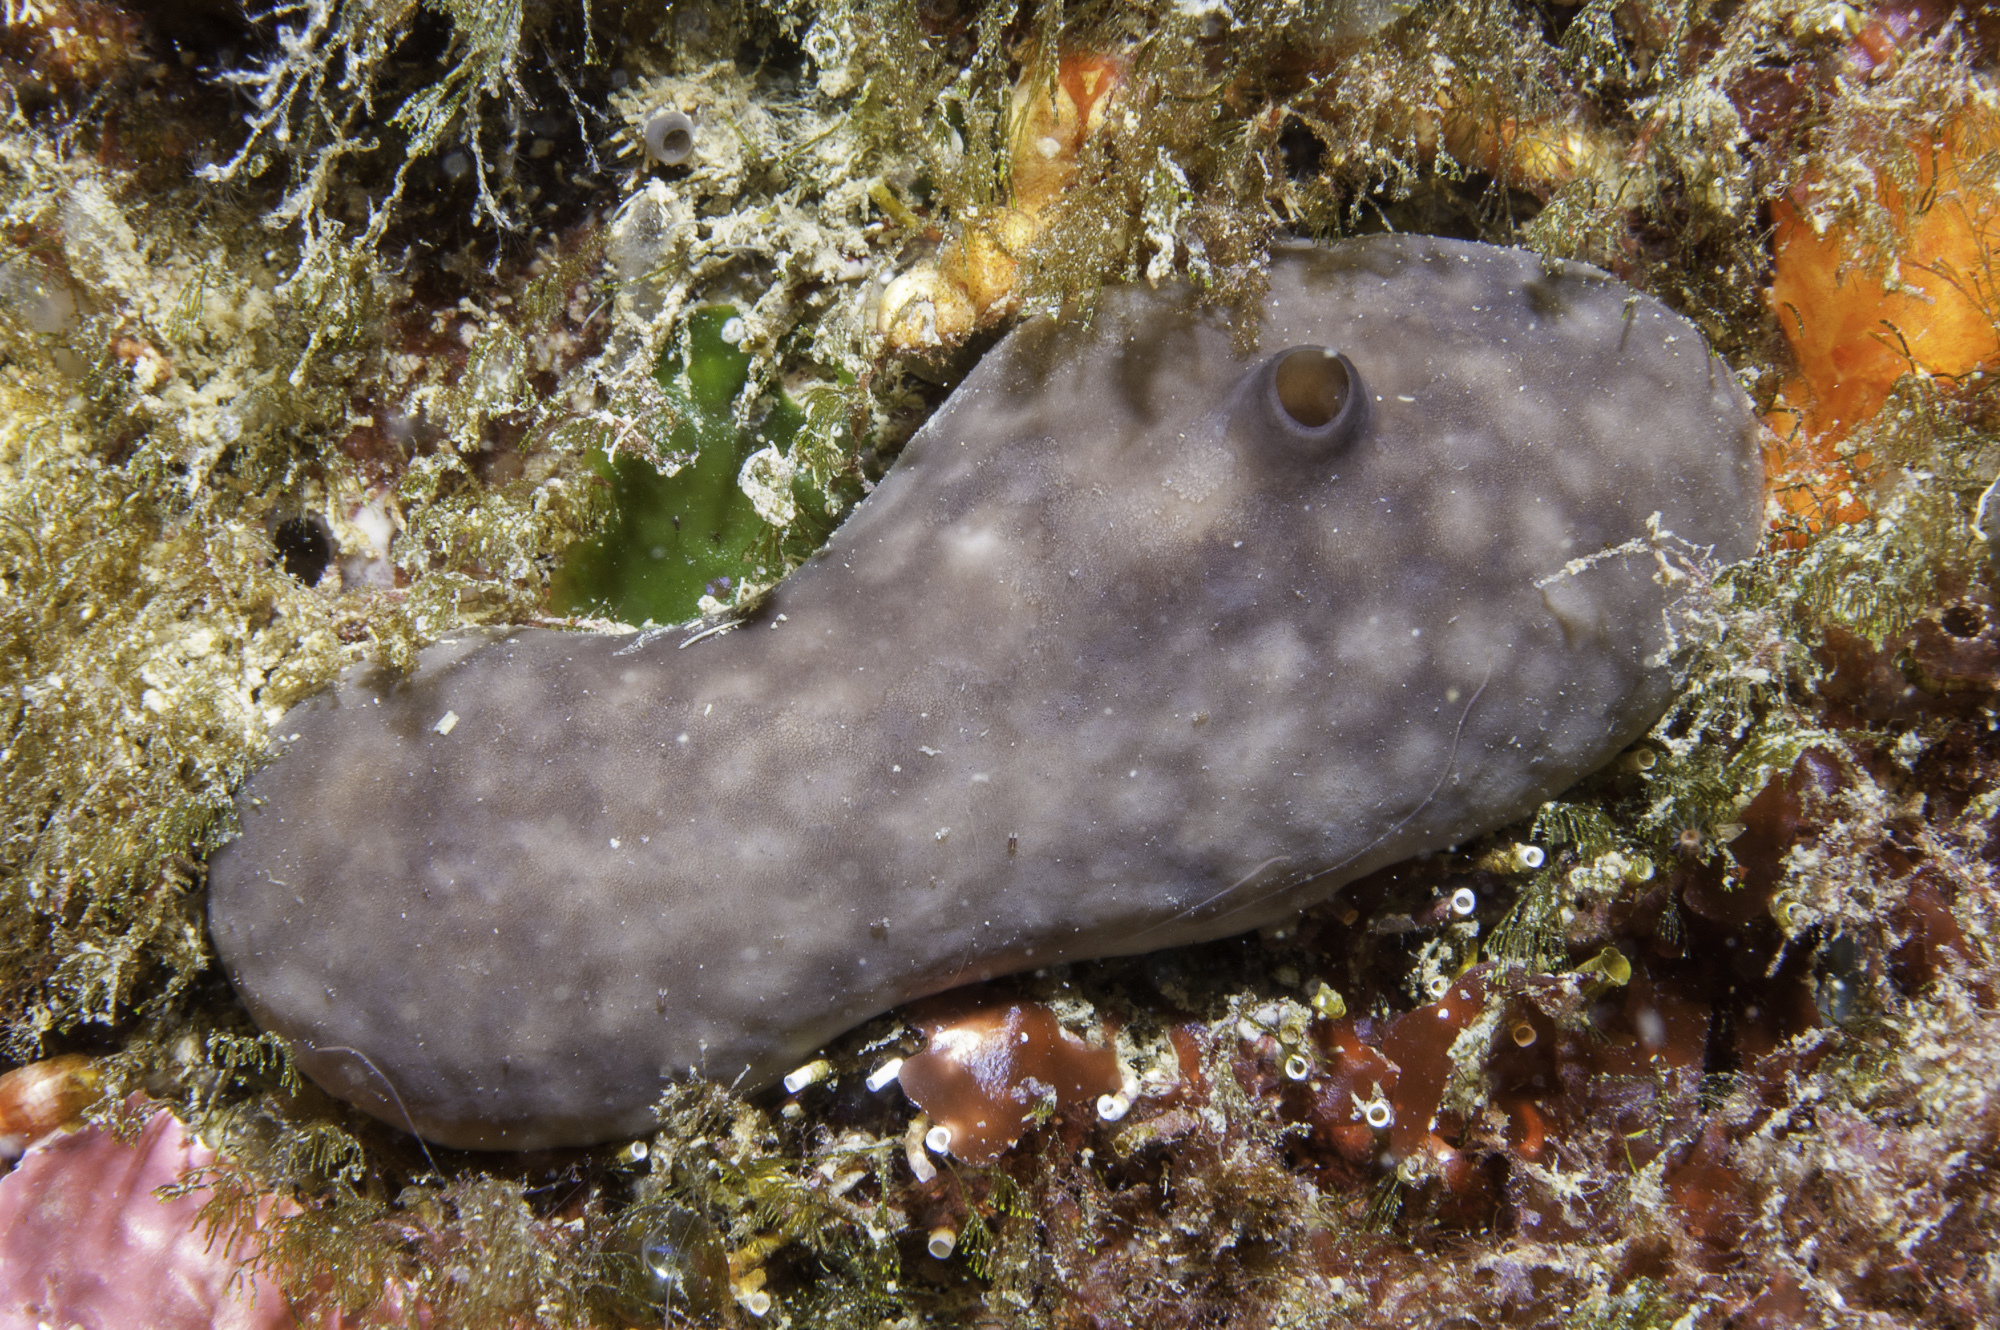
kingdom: Animalia
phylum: Porifera
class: Demospongiae
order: Chondrosiida
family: Chondrosiidae
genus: Chondrosia
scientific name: Chondrosia reniformis
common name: Chicken liver sponge
